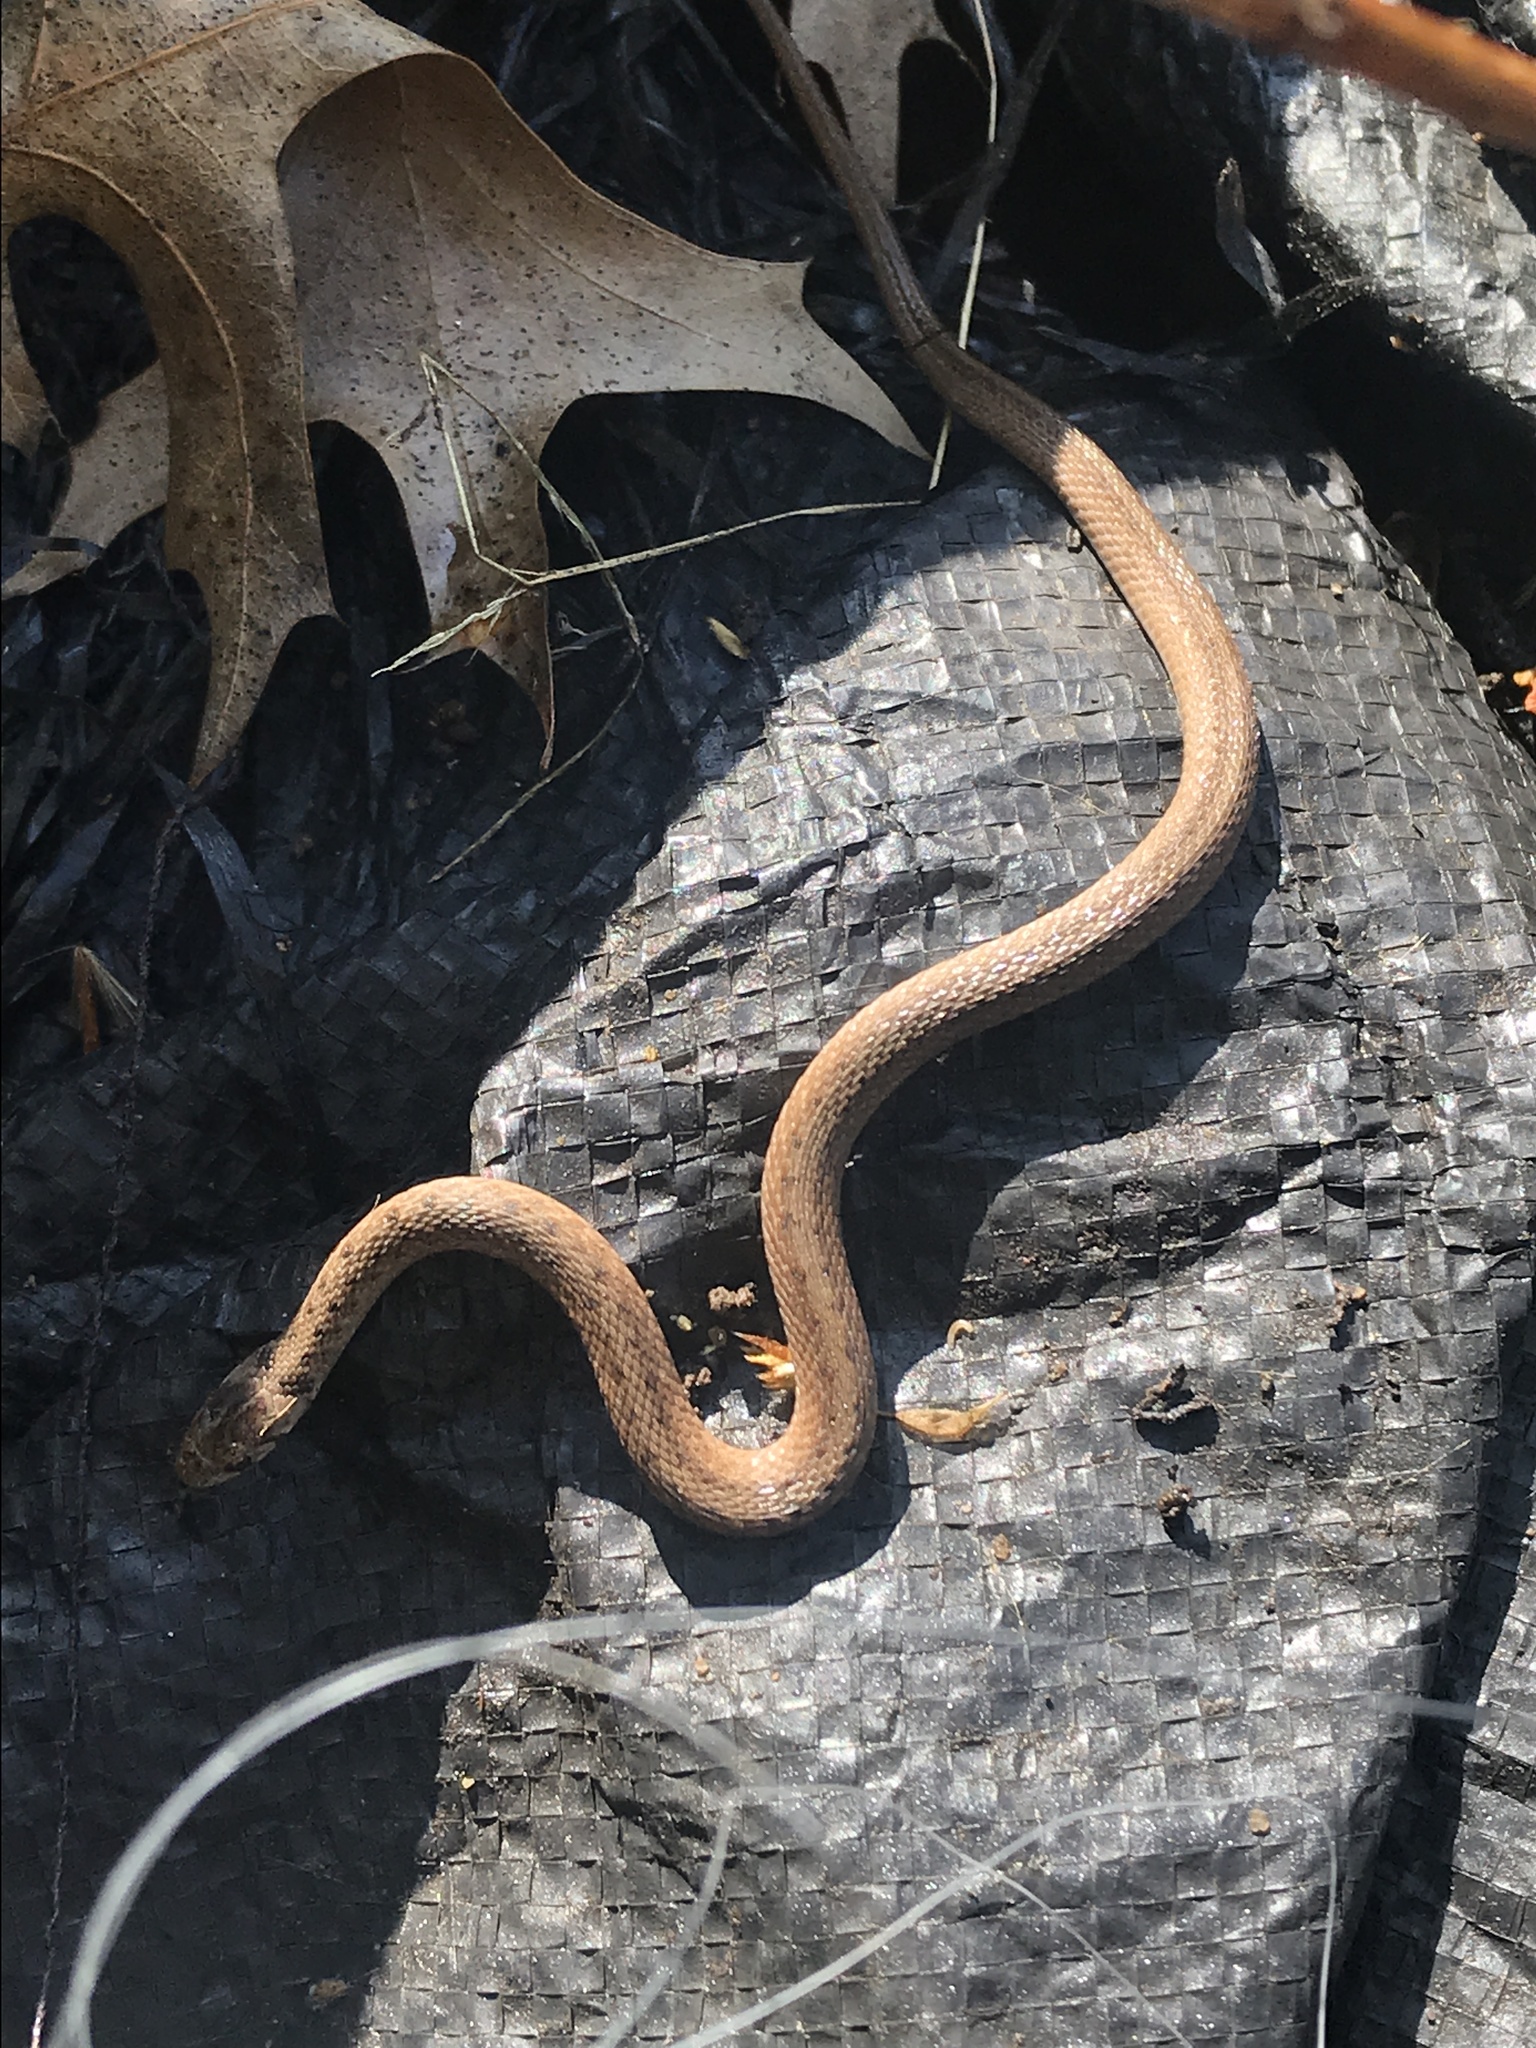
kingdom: Animalia
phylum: Chordata
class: Squamata
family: Colubridae
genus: Storeria
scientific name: Storeria dekayi
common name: (dekay’s) brown snake
